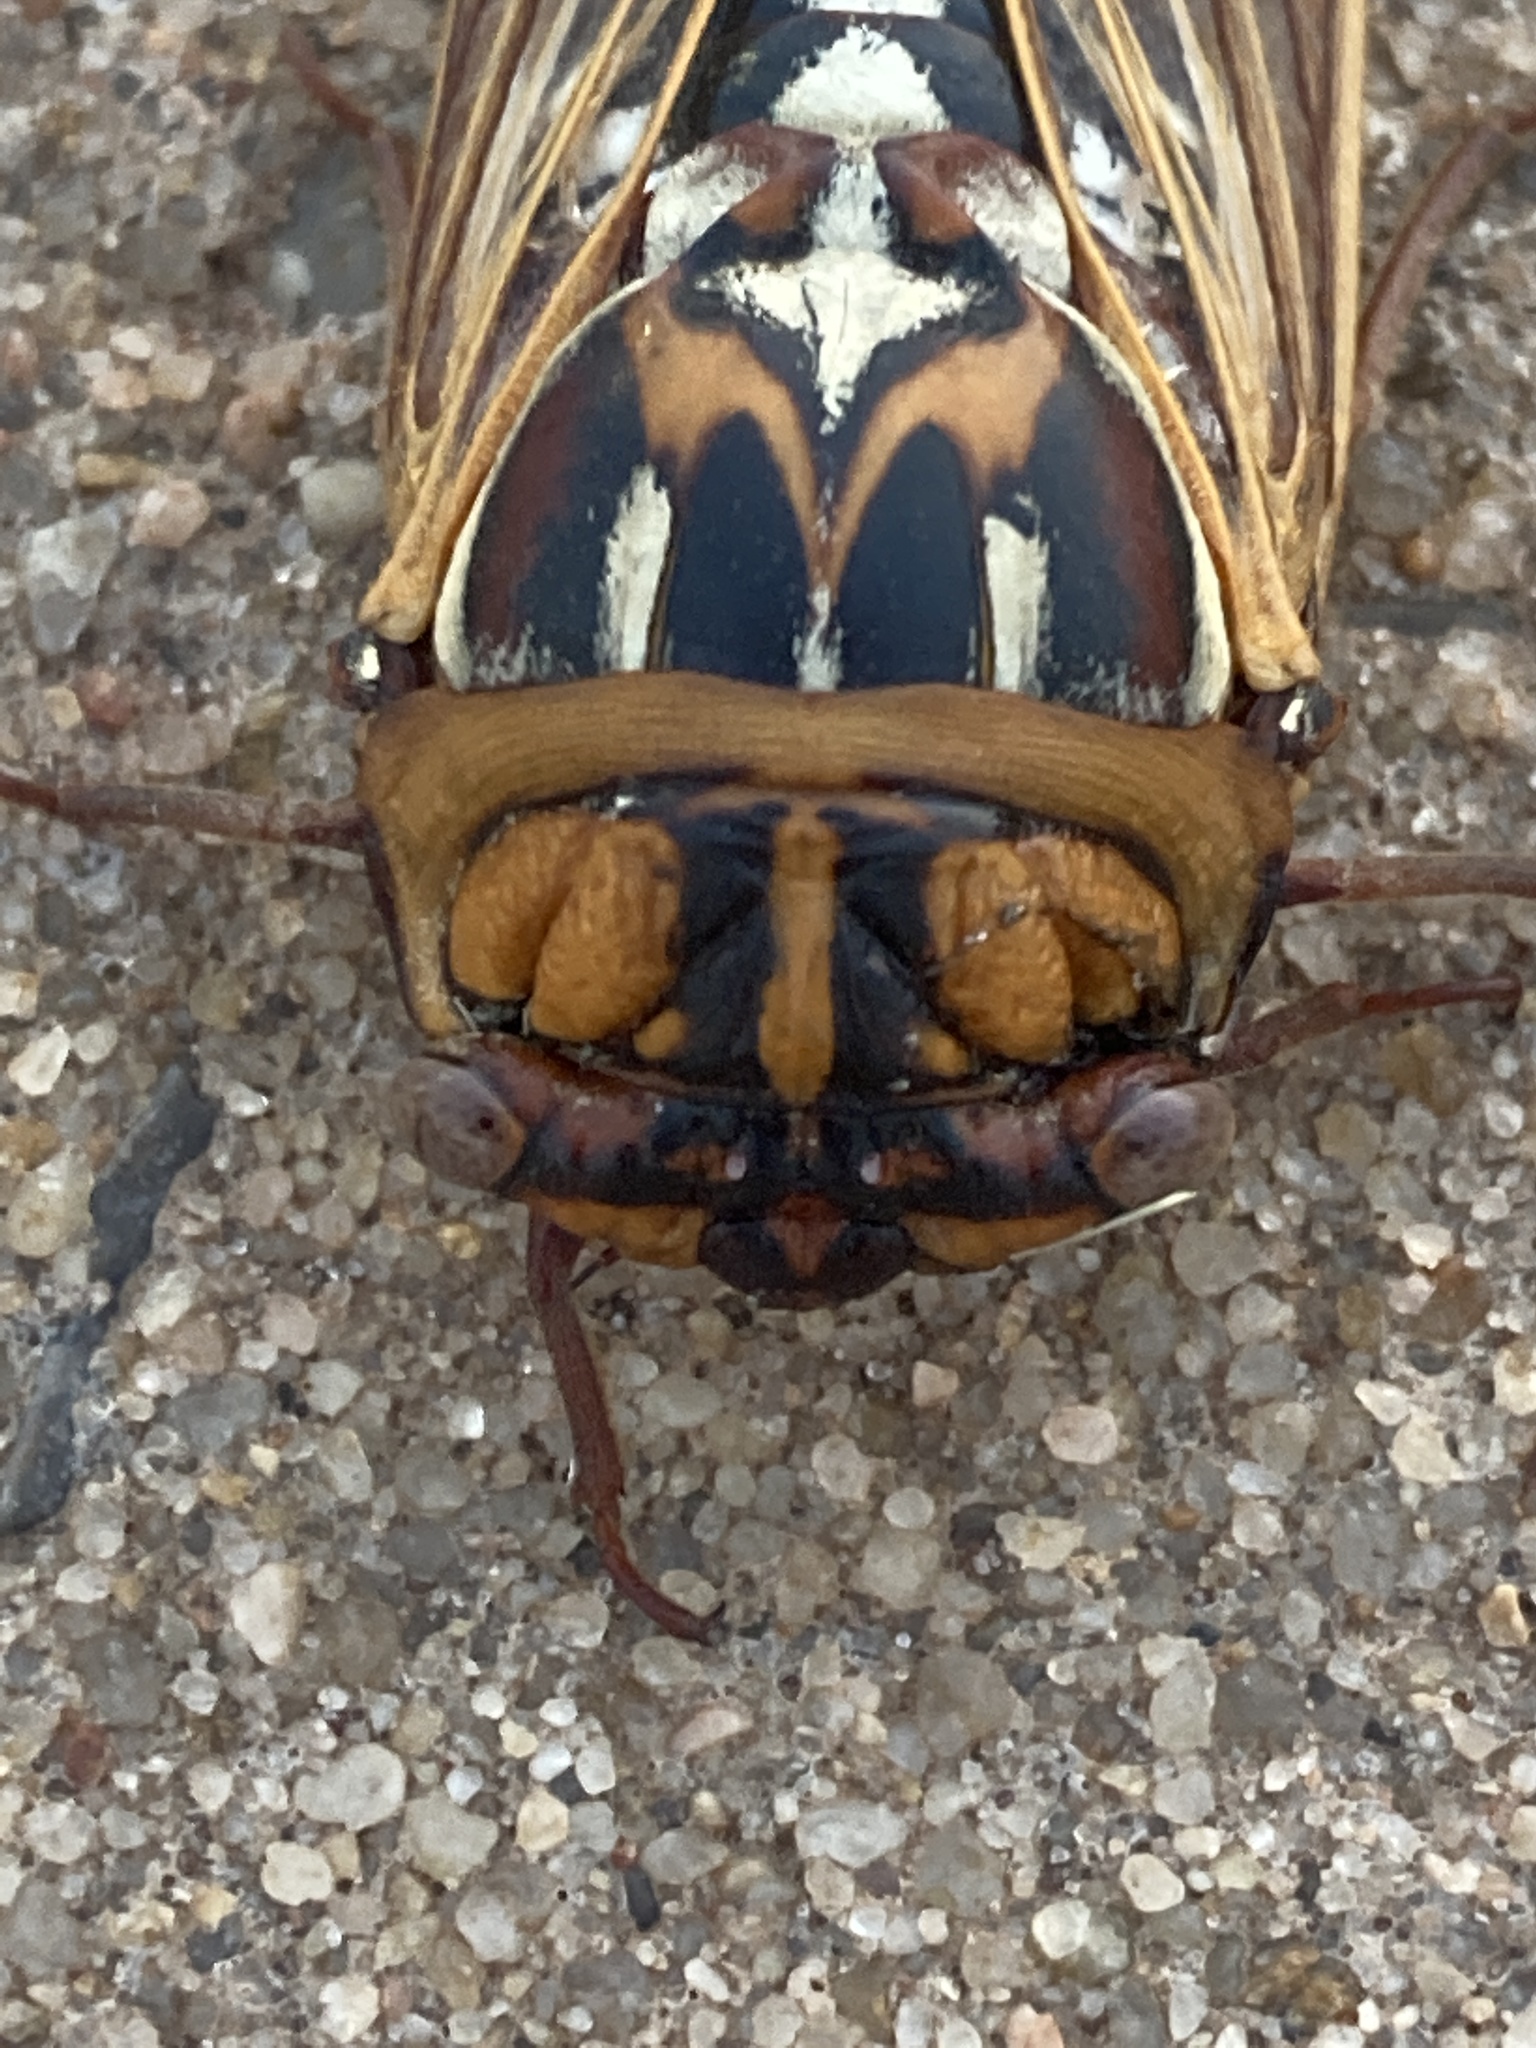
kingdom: Animalia
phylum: Arthropoda
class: Insecta
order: Hemiptera
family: Cicadidae
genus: Megatibicen
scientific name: Megatibicen dorsatus
